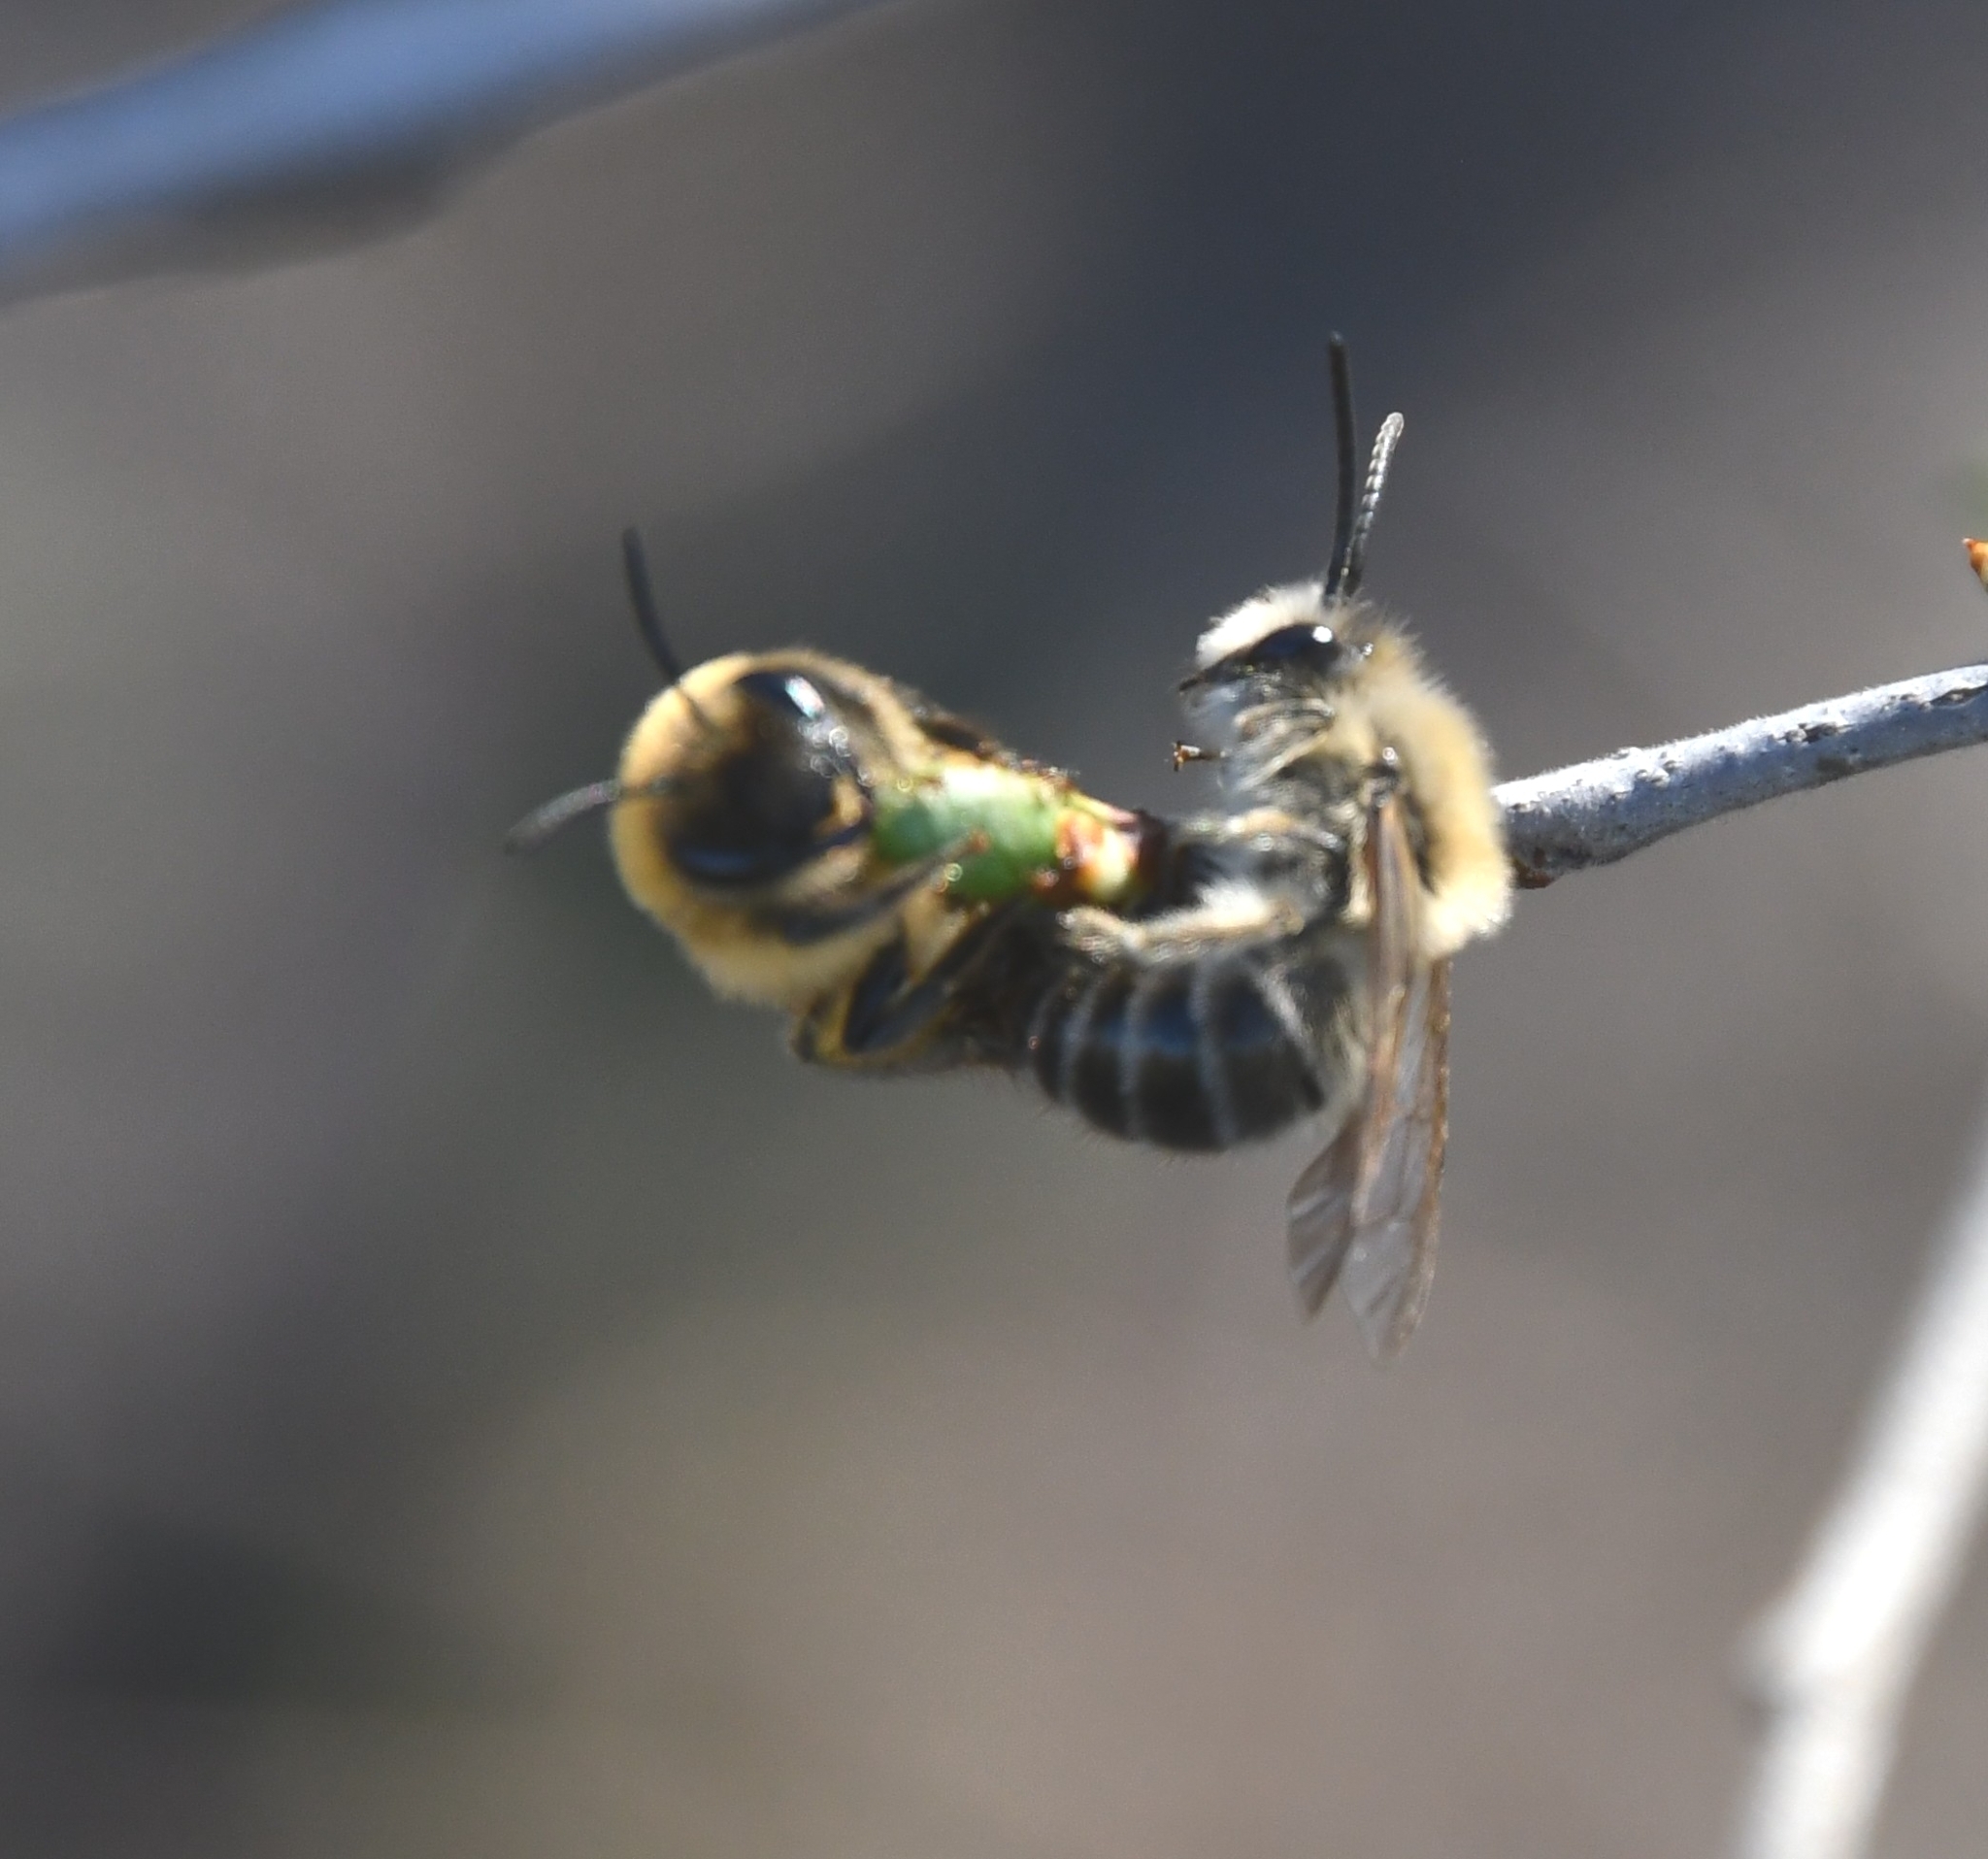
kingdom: Animalia
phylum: Arthropoda
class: Insecta
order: Hymenoptera
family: Colletidae
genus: Colletes
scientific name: Colletes cunicularius
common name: Early colletes
